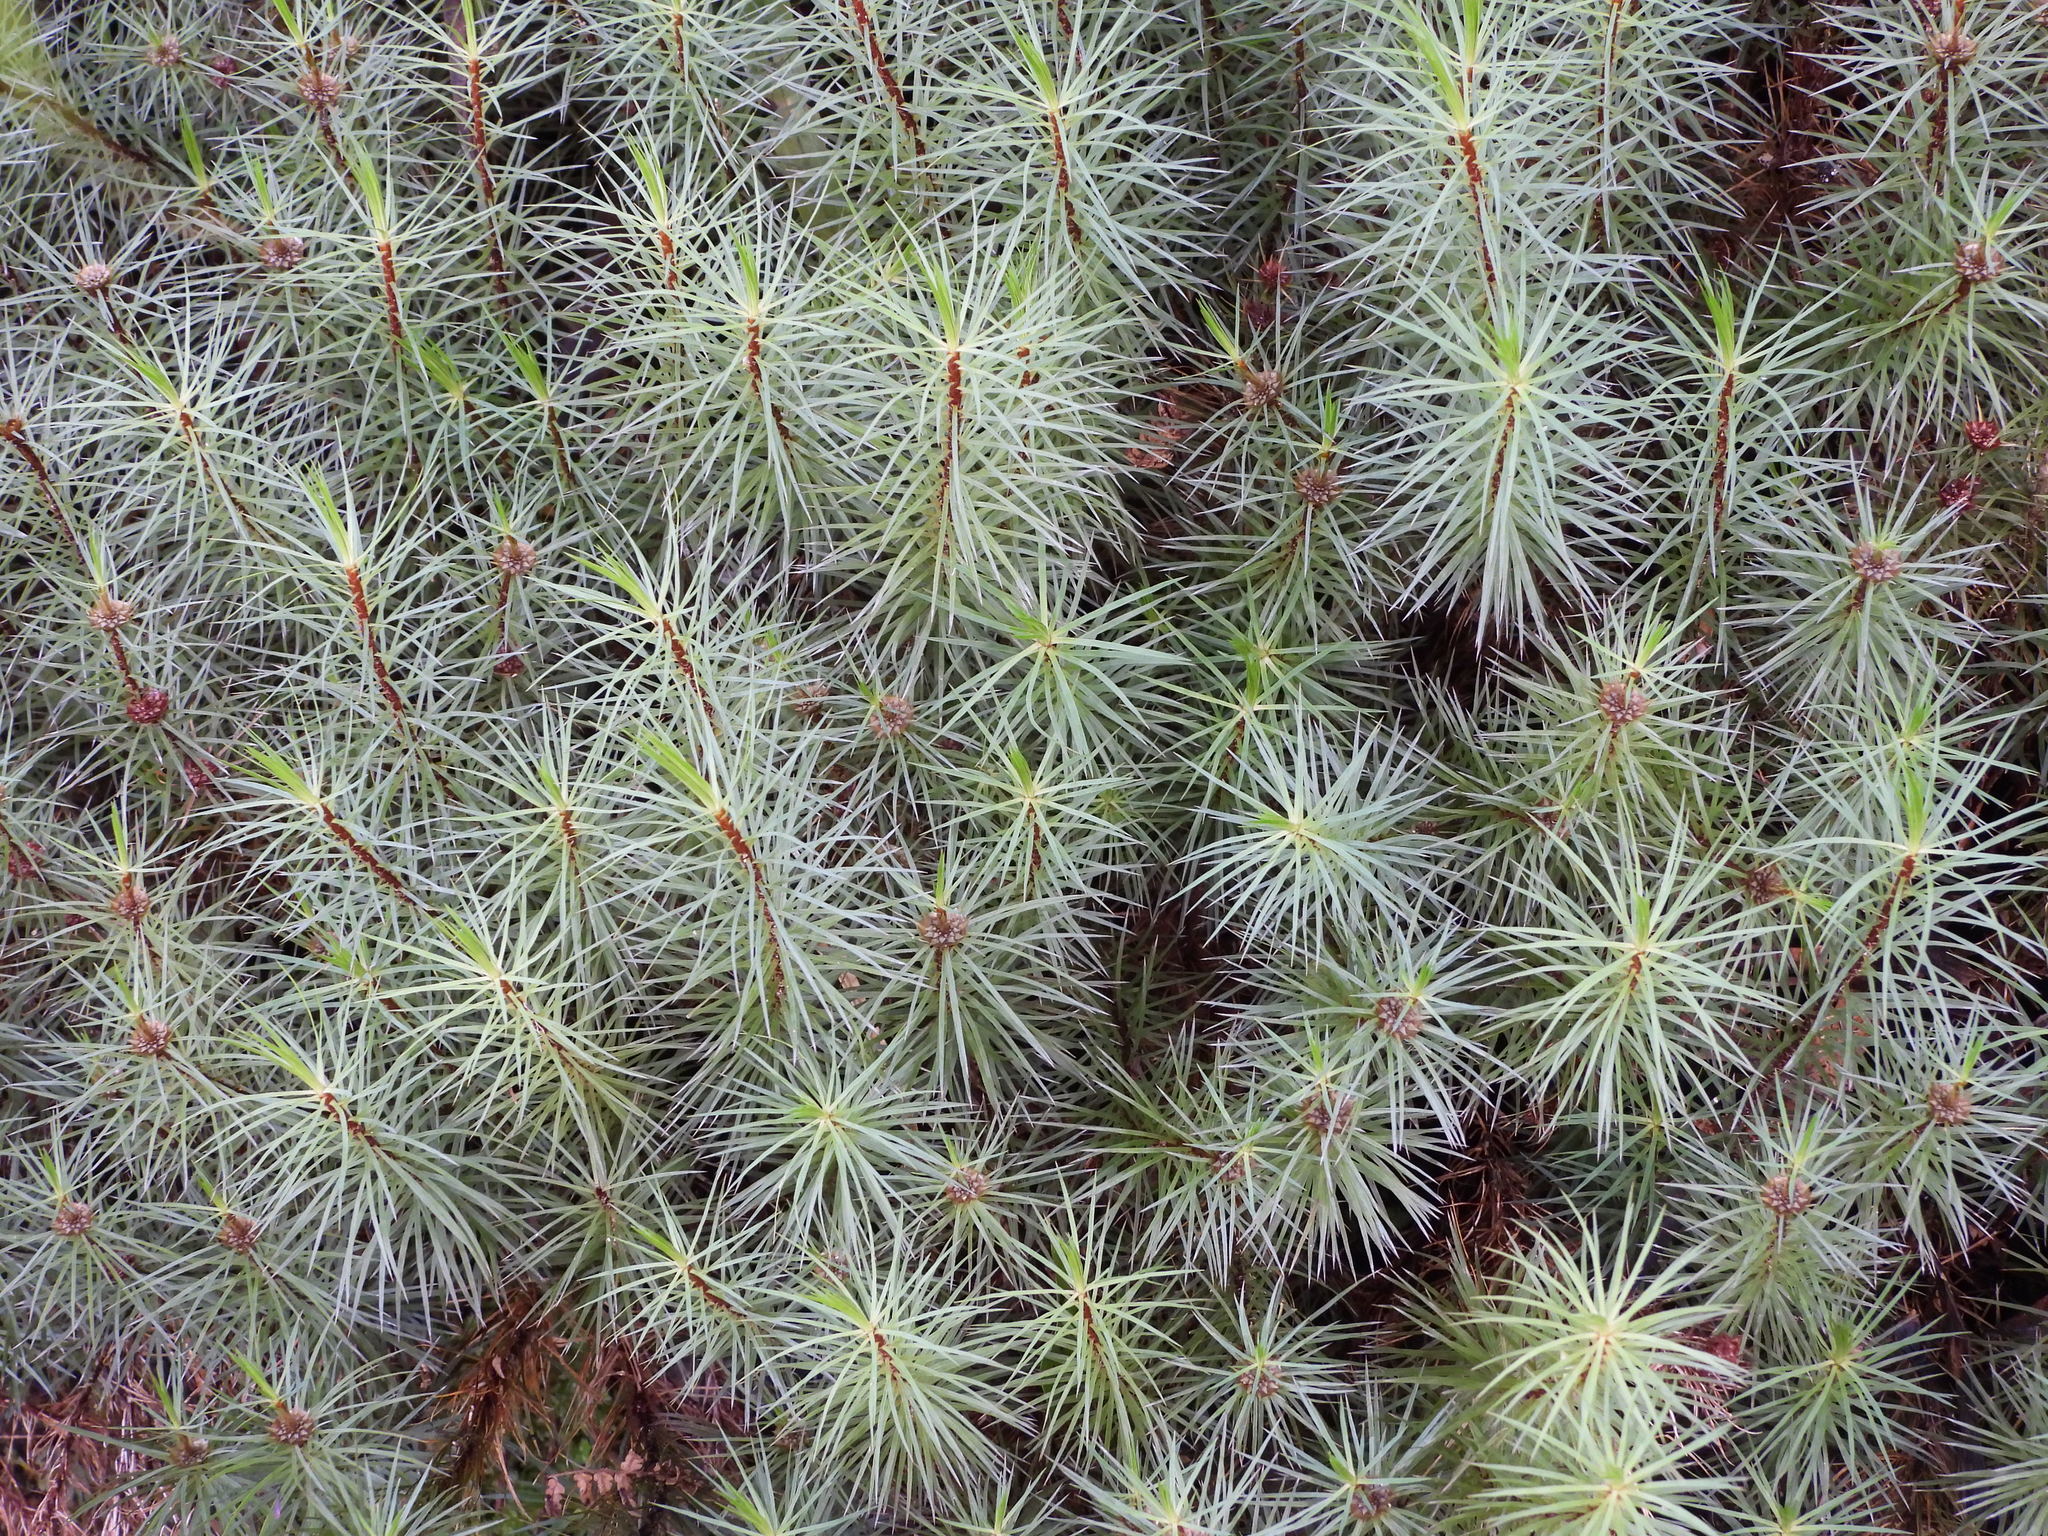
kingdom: Plantae
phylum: Bryophyta
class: Polytrichopsida
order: Polytrichales
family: Polytrichaceae
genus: Dawsonia
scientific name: Dawsonia superba
